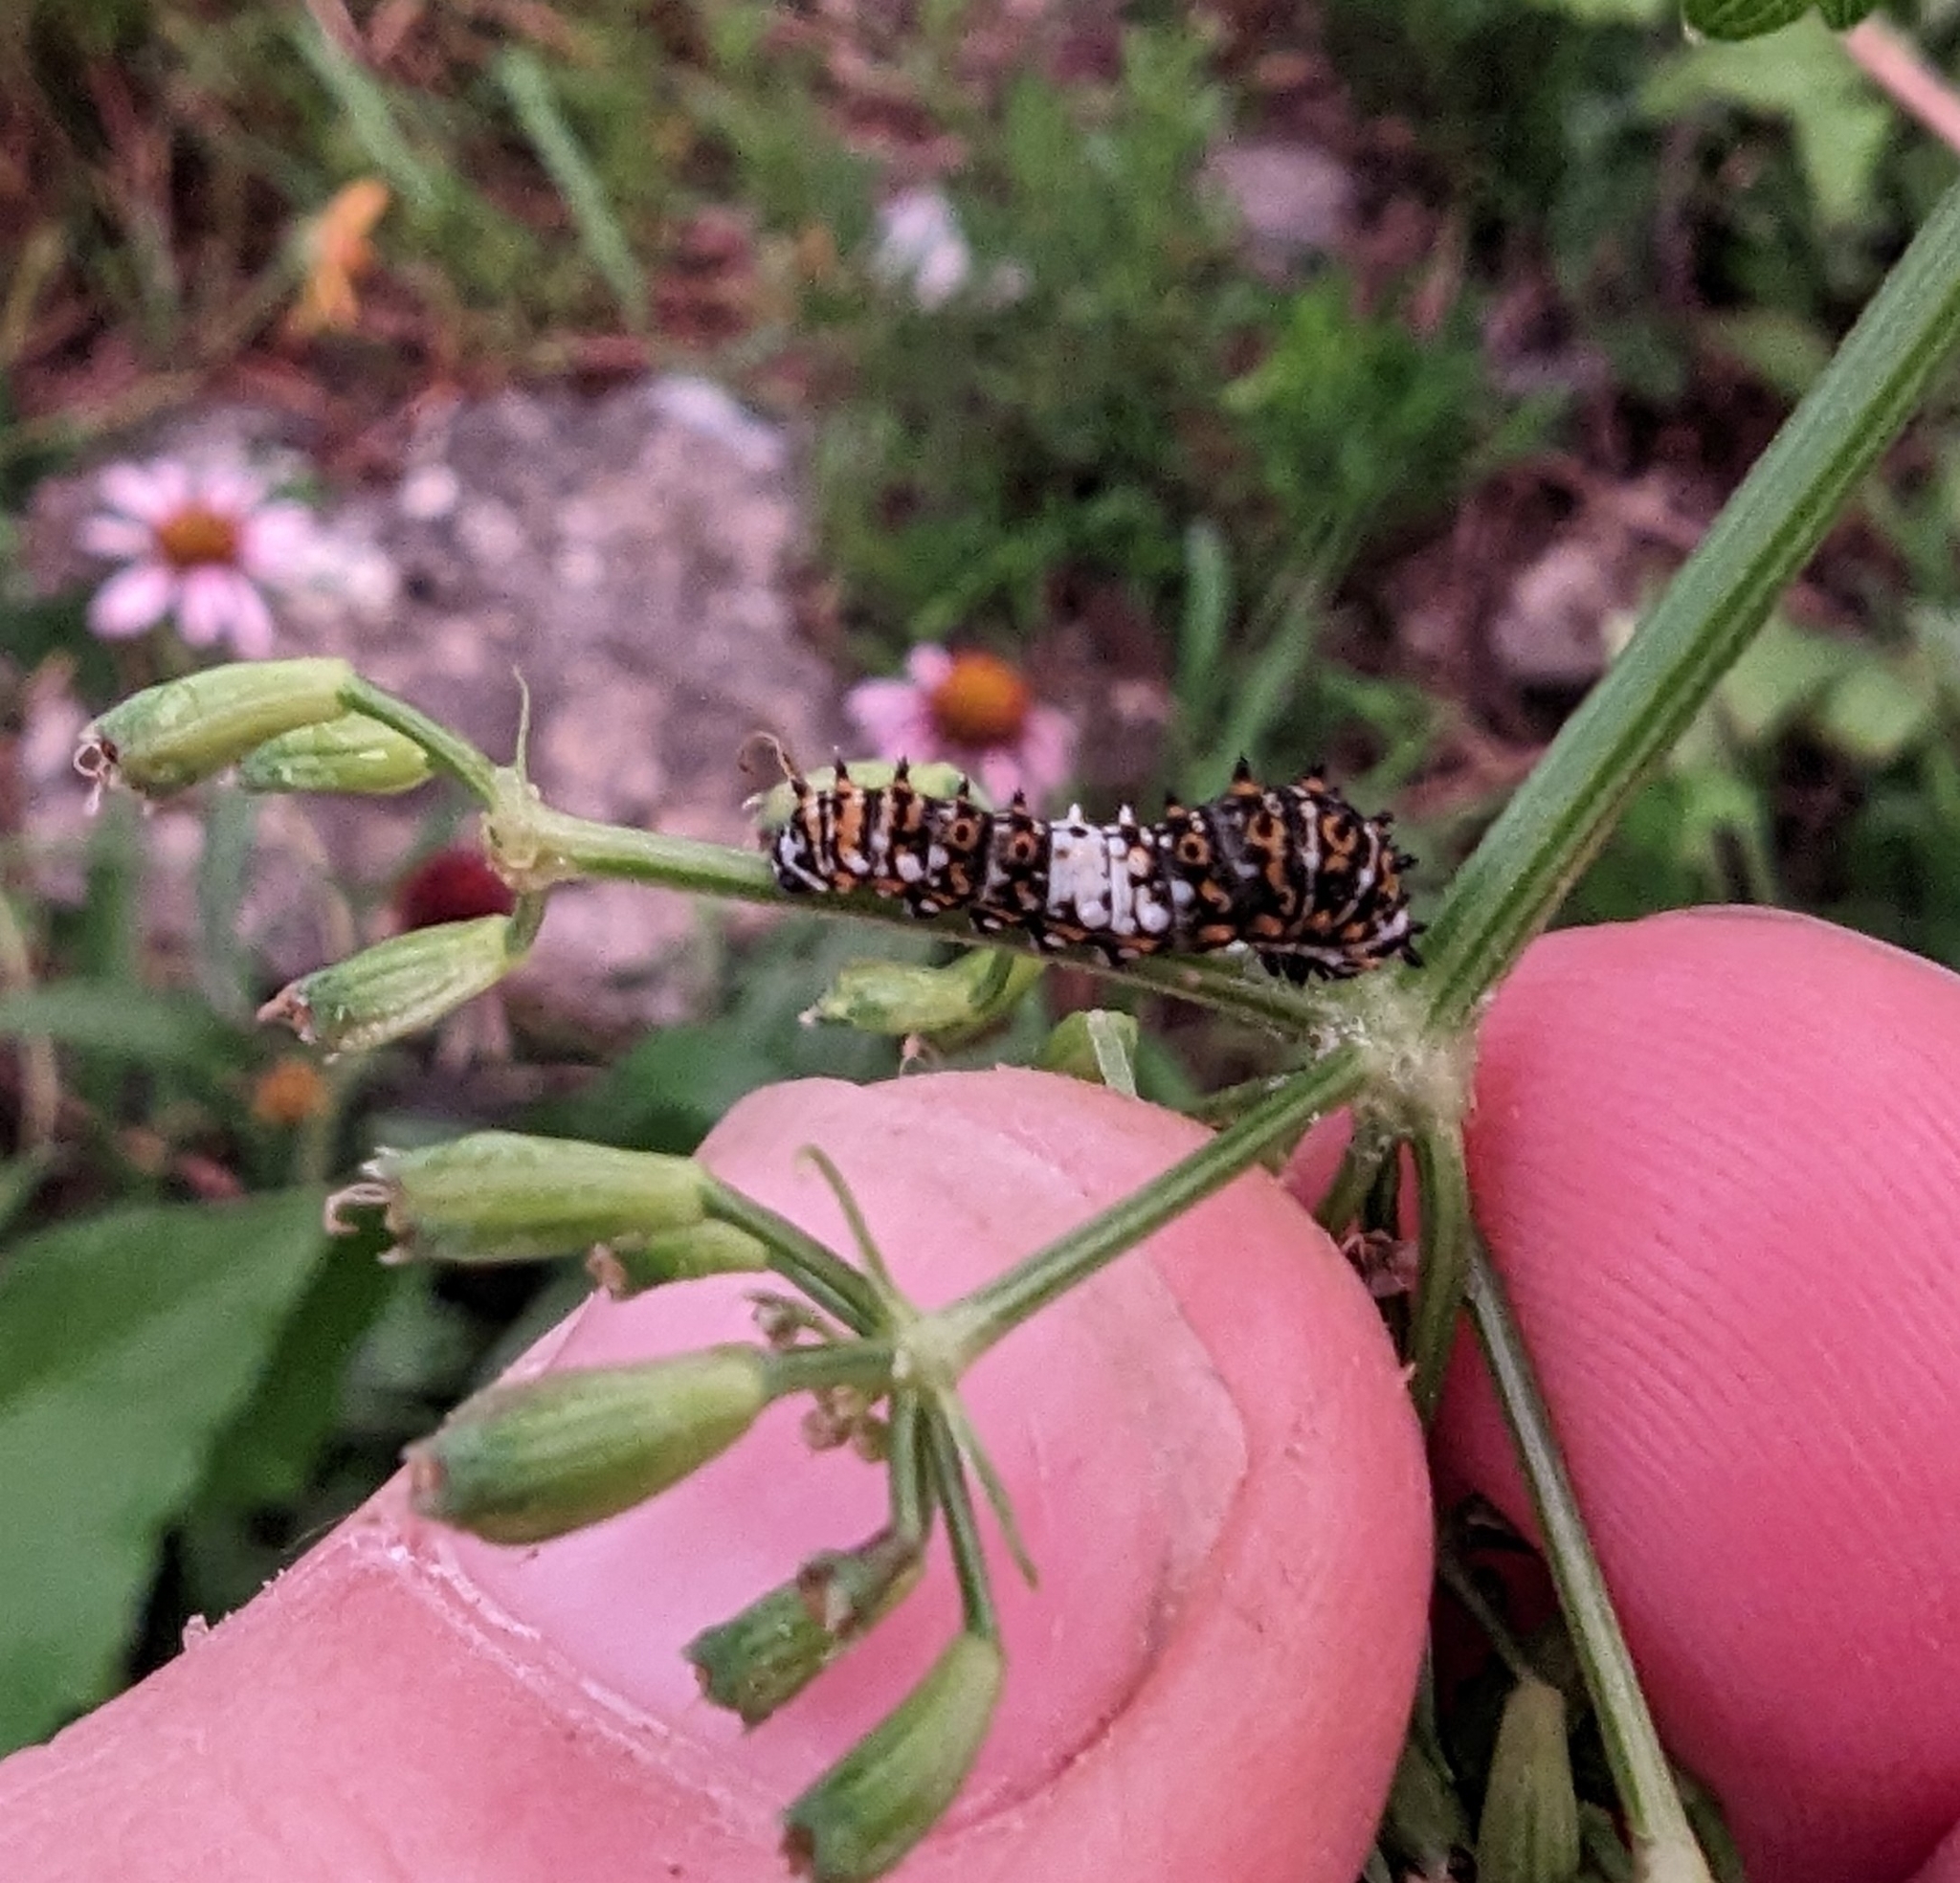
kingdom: Animalia
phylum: Arthropoda
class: Insecta
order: Lepidoptera
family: Papilionidae
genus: Papilio
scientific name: Papilio polyxenes
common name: Black swallowtail
